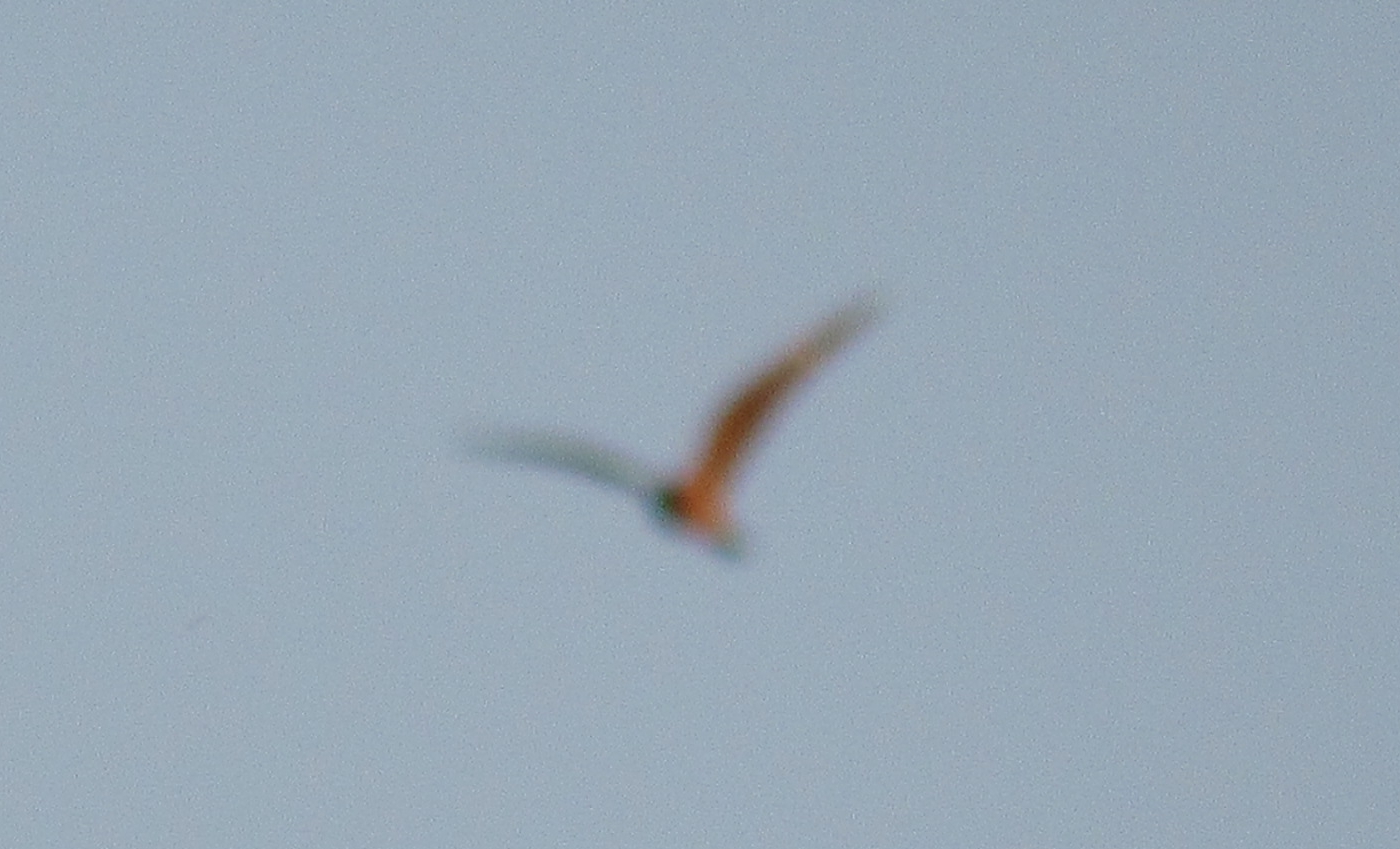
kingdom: Animalia
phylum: Chordata
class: Aves
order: Caprimulgiformes
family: Caprimulgidae
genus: Chordeiles
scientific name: Chordeiles minor
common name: Common nighthawk
